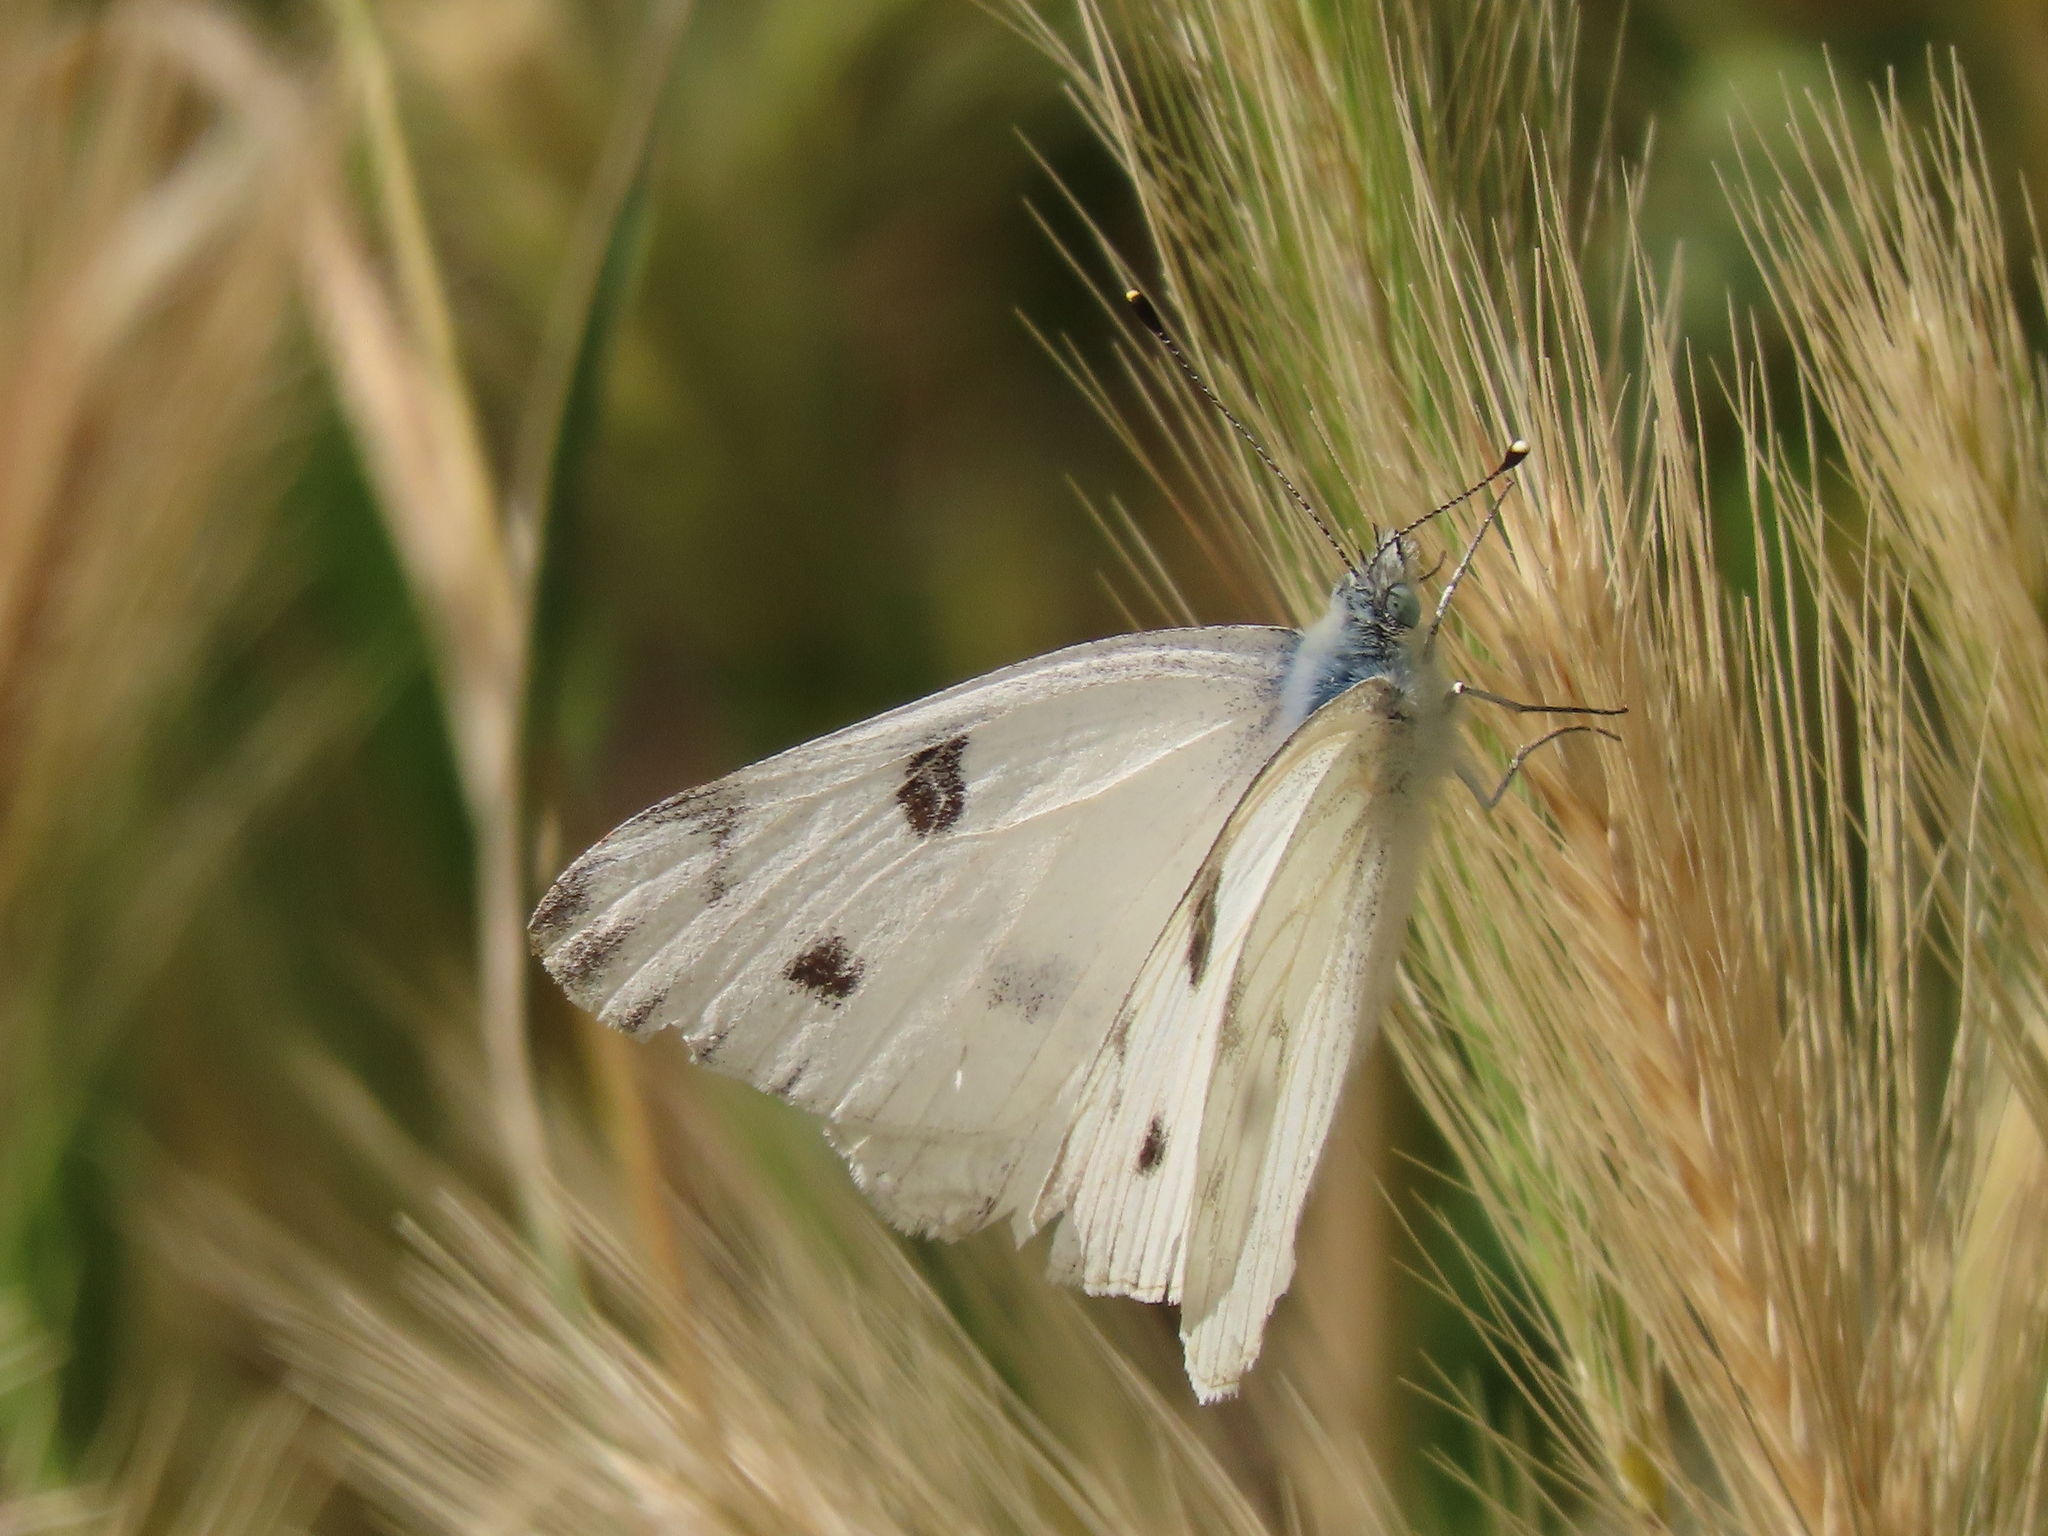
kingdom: Animalia
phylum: Arthropoda
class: Insecta
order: Lepidoptera
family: Pieridae
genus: Pontia
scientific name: Pontia protodice
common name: Checkered white
